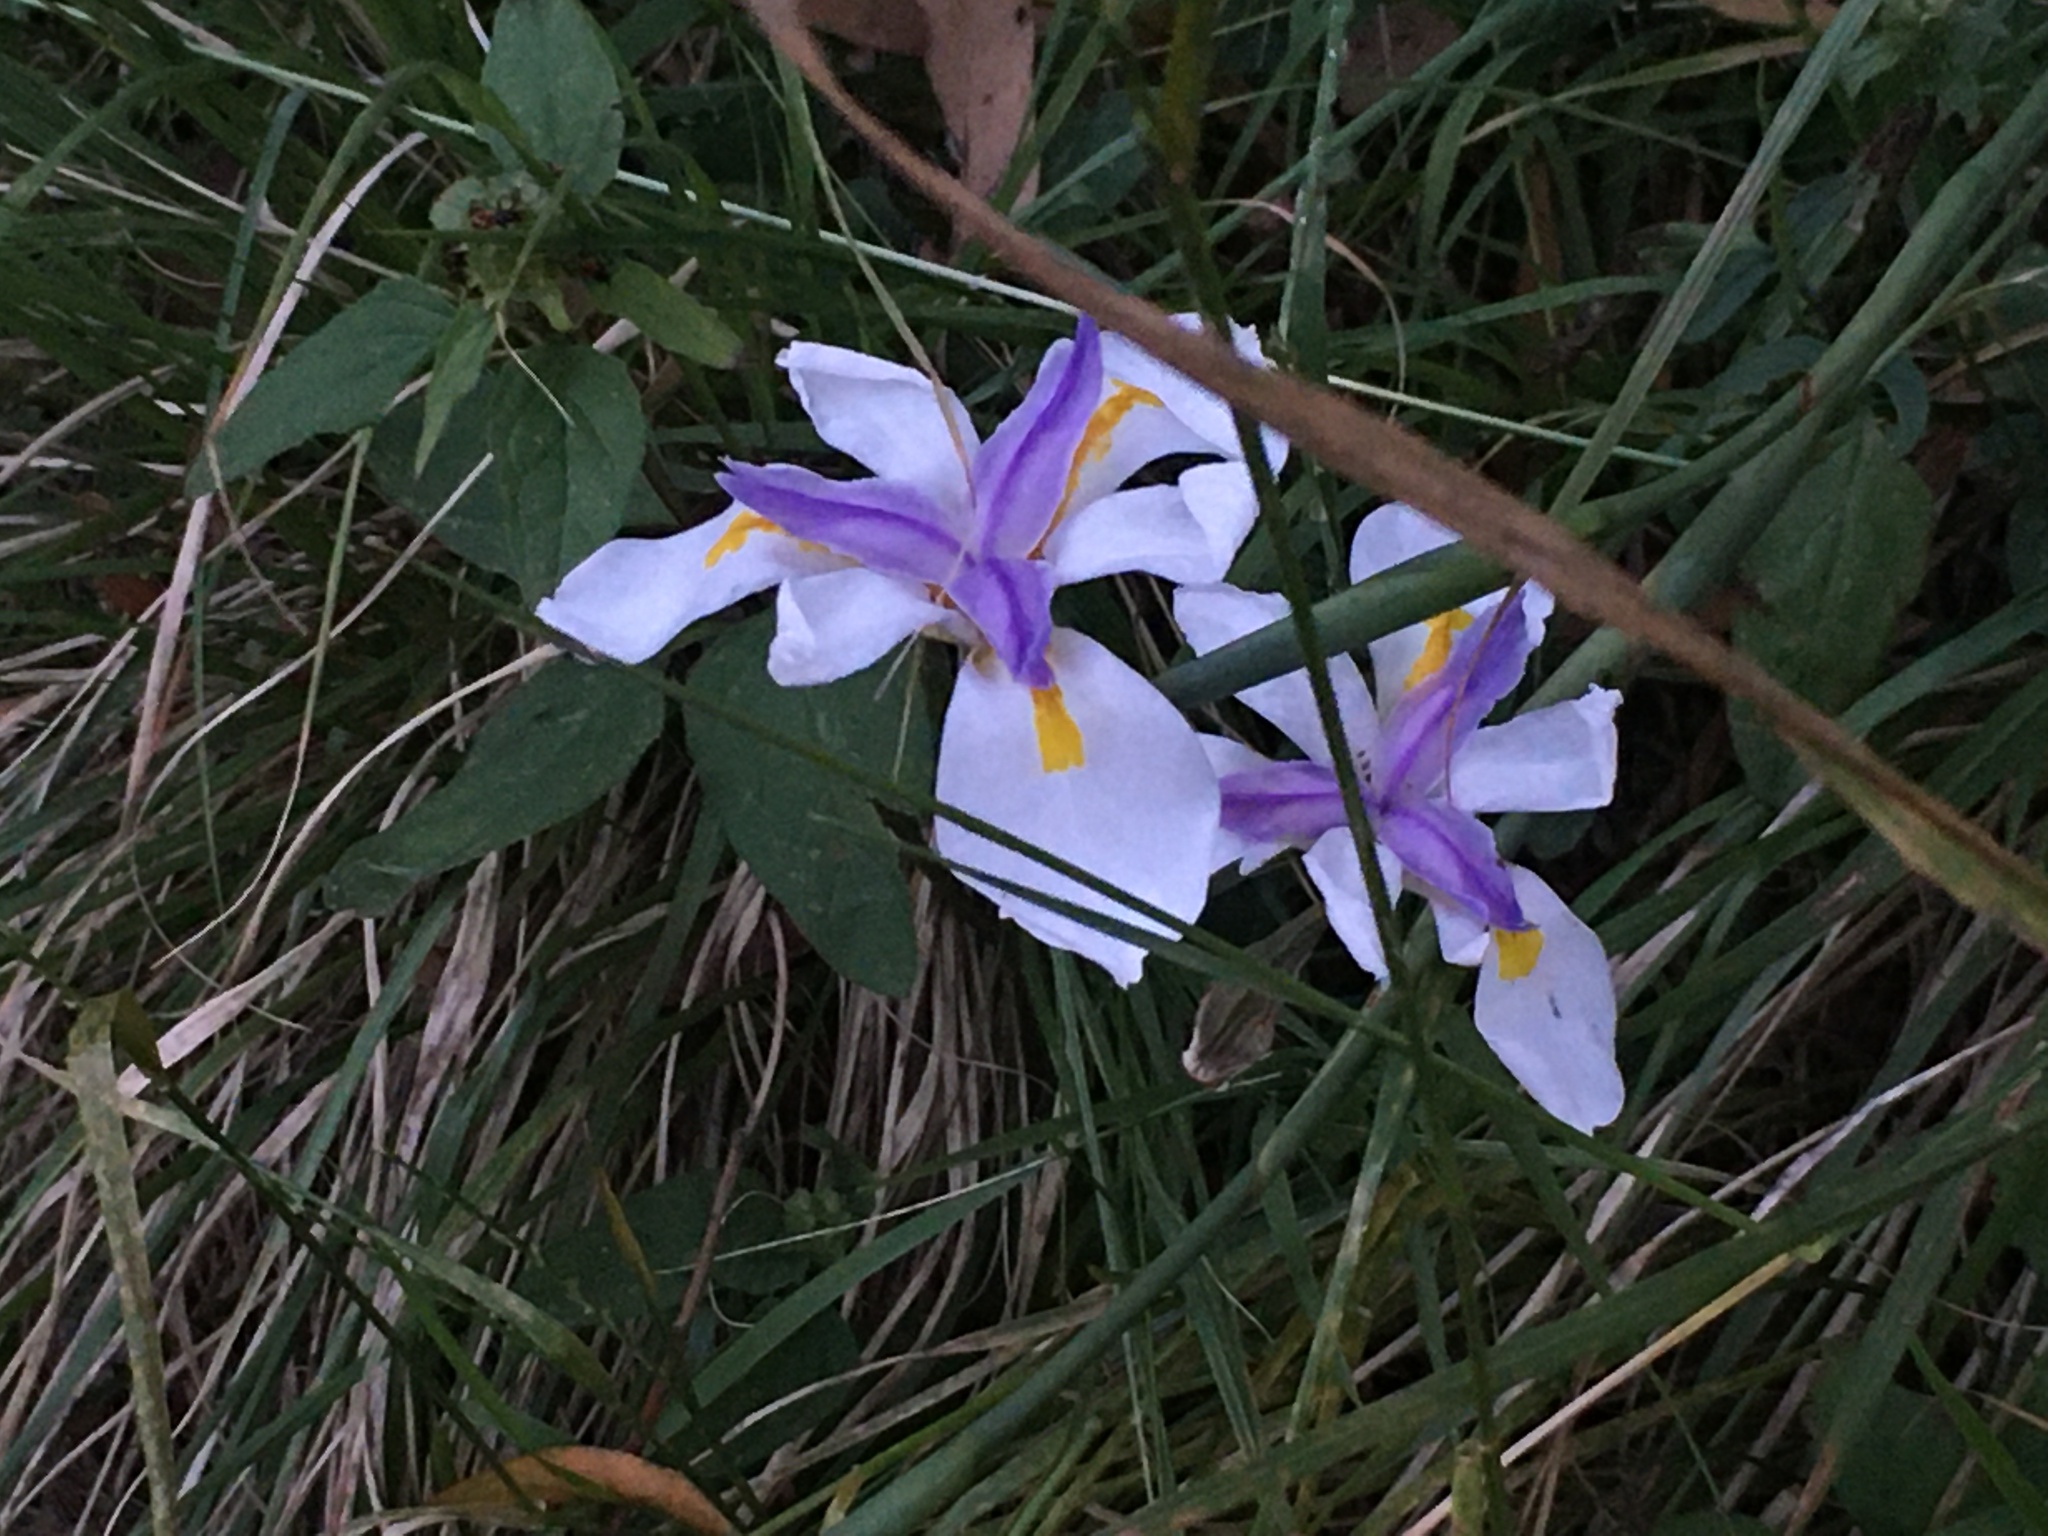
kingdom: Plantae
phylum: Tracheophyta
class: Liliopsida
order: Asparagales
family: Iridaceae
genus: Dietes
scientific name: Dietes grandiflora
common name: Wild iris
